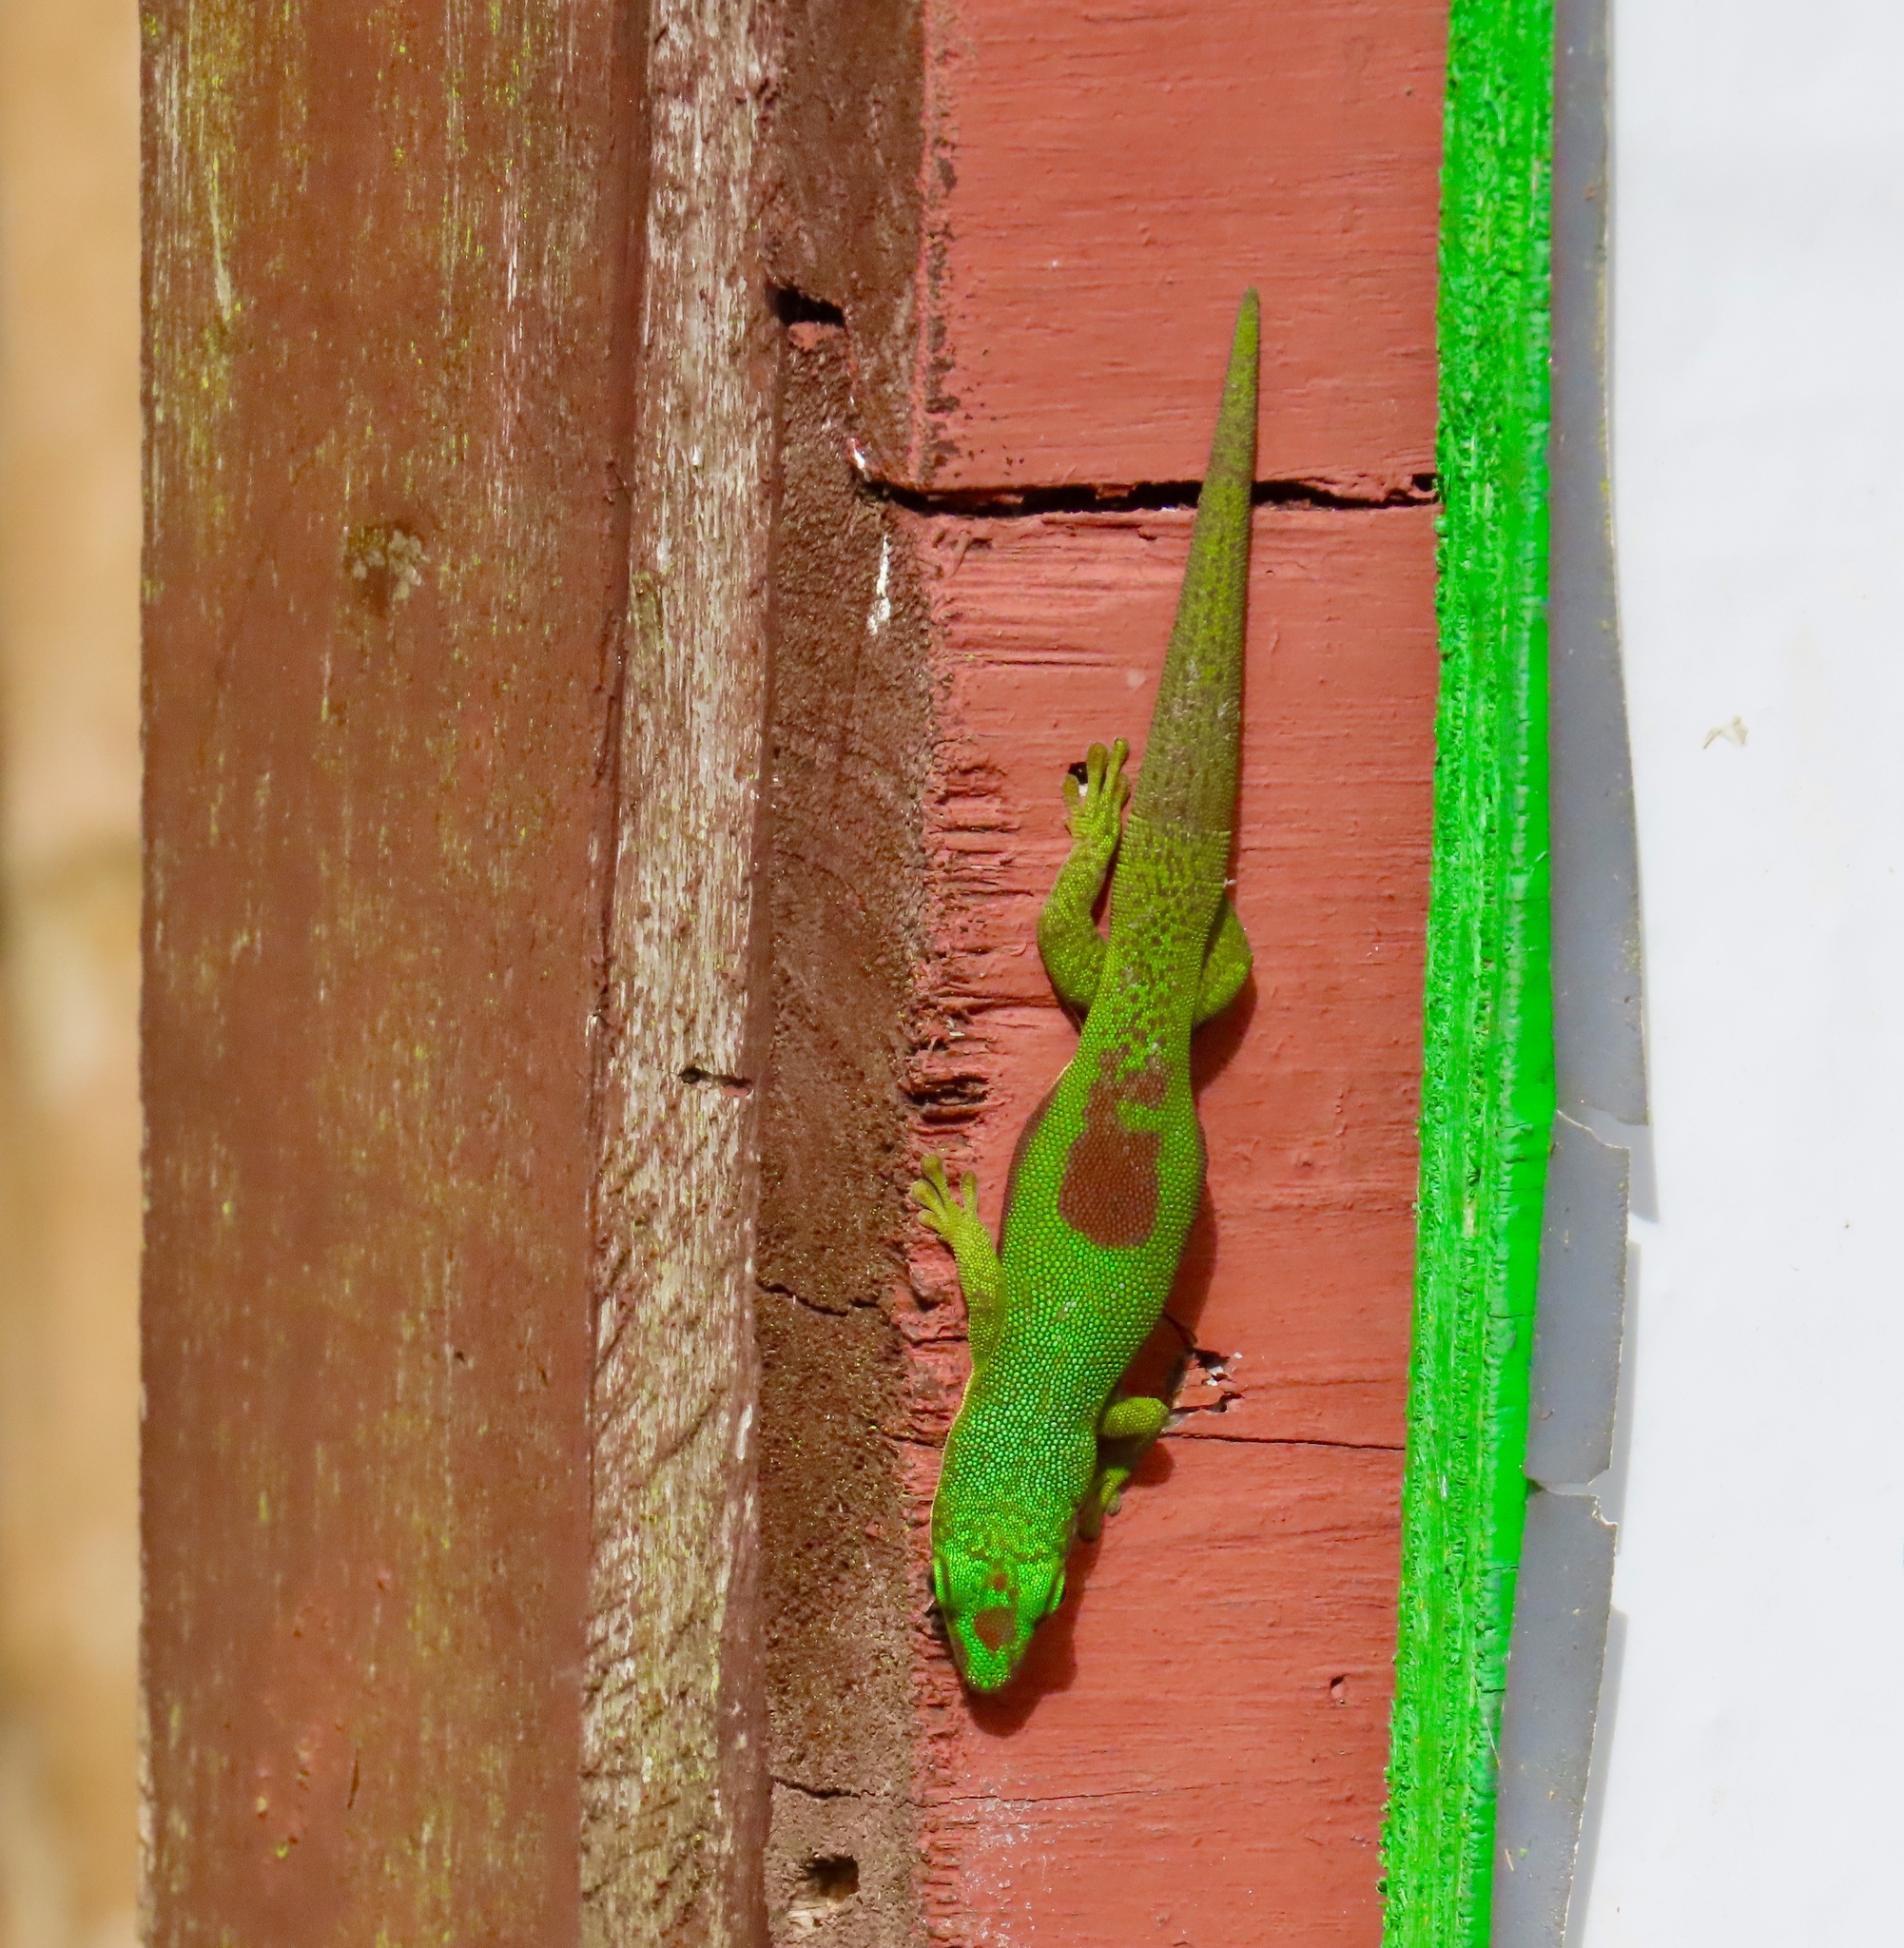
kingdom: Animalia
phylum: Chordata
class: Squamata
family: Gekkonidae
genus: Phelsuma
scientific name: Phelsuma lineata
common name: Lined day gecko
